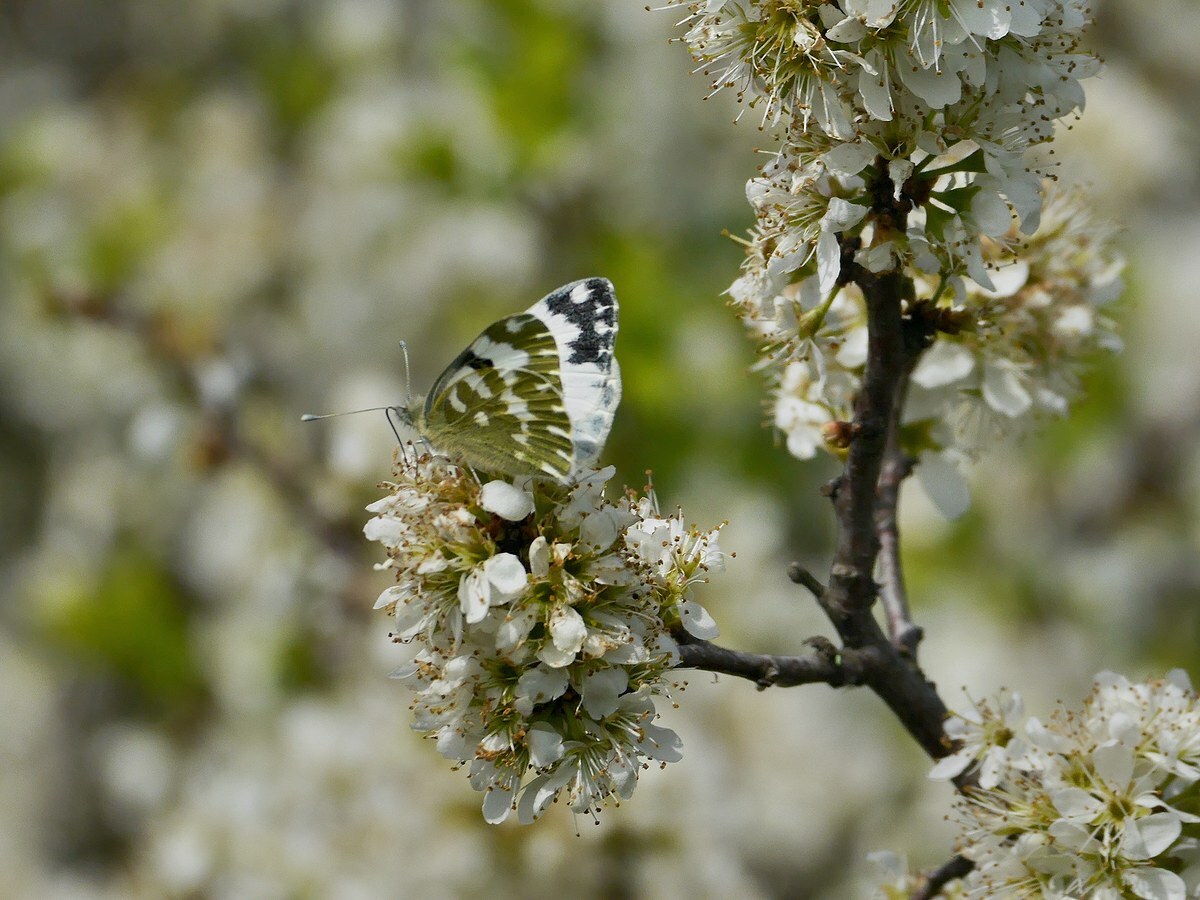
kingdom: Animalia
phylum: Arthropoda
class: Insecta
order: Lepidoptera
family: Pieridae
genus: Pontia
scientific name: Pontia edusa
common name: Eastern bath white
